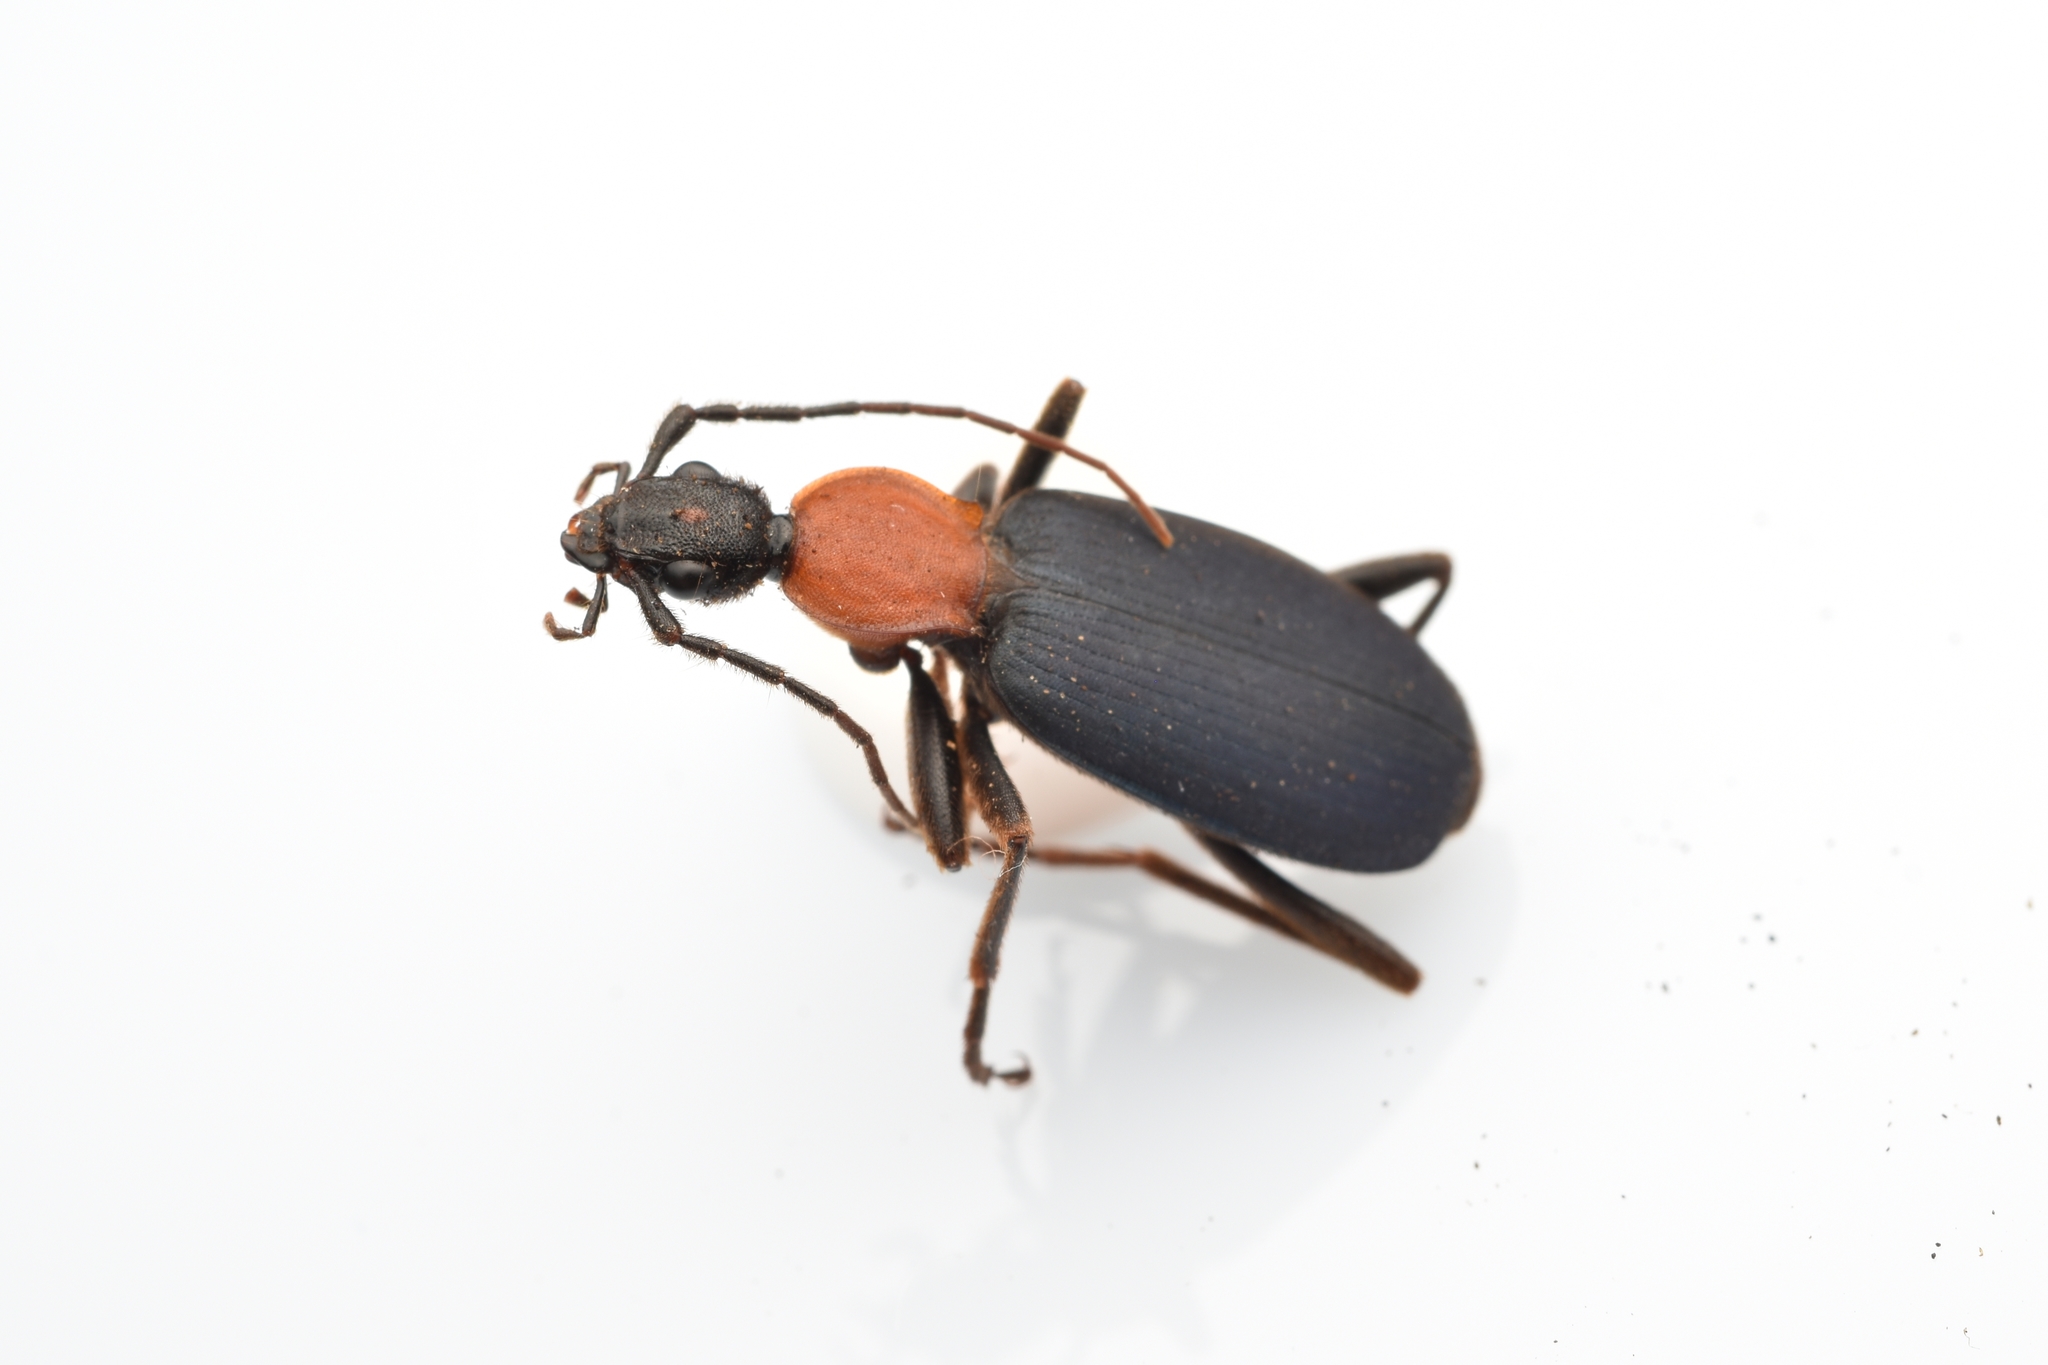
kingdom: Animalia
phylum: Arthropoda
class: Insecta
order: Coleoptera
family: Carabidae
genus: Galerita
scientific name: Galerita mexicana
